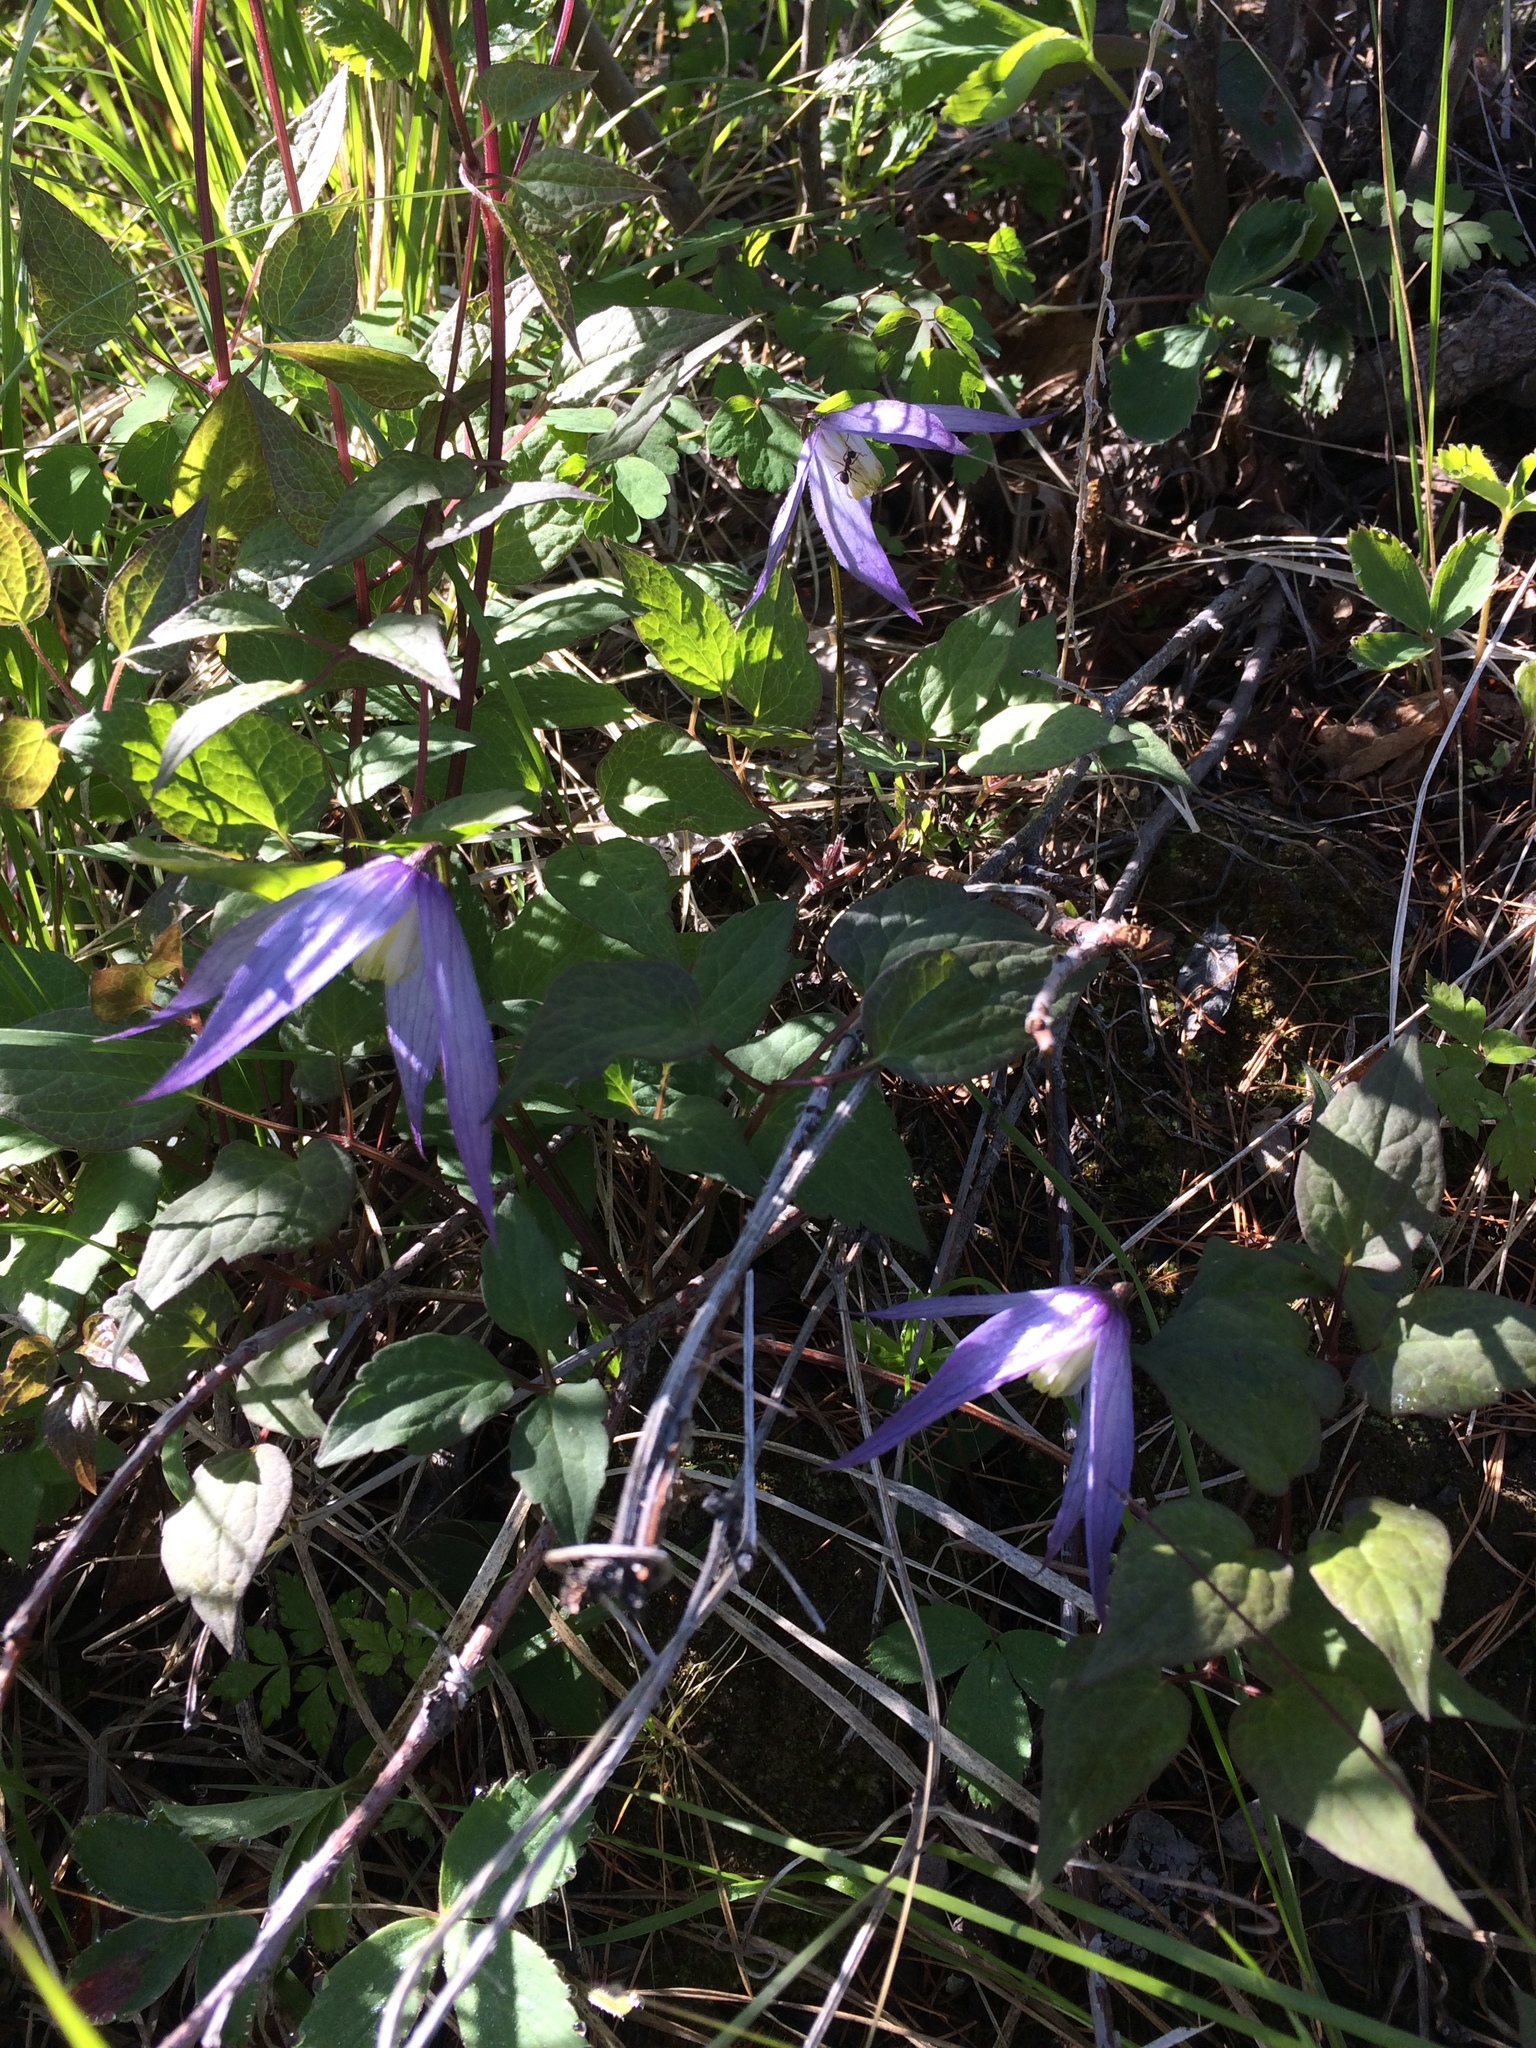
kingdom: Plantae
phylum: Tracheophyta
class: Magnoliopsida
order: Ranunculales
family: Ranunculaceae
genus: Clematis
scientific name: Clematis occidentalis
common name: Purple clematis
